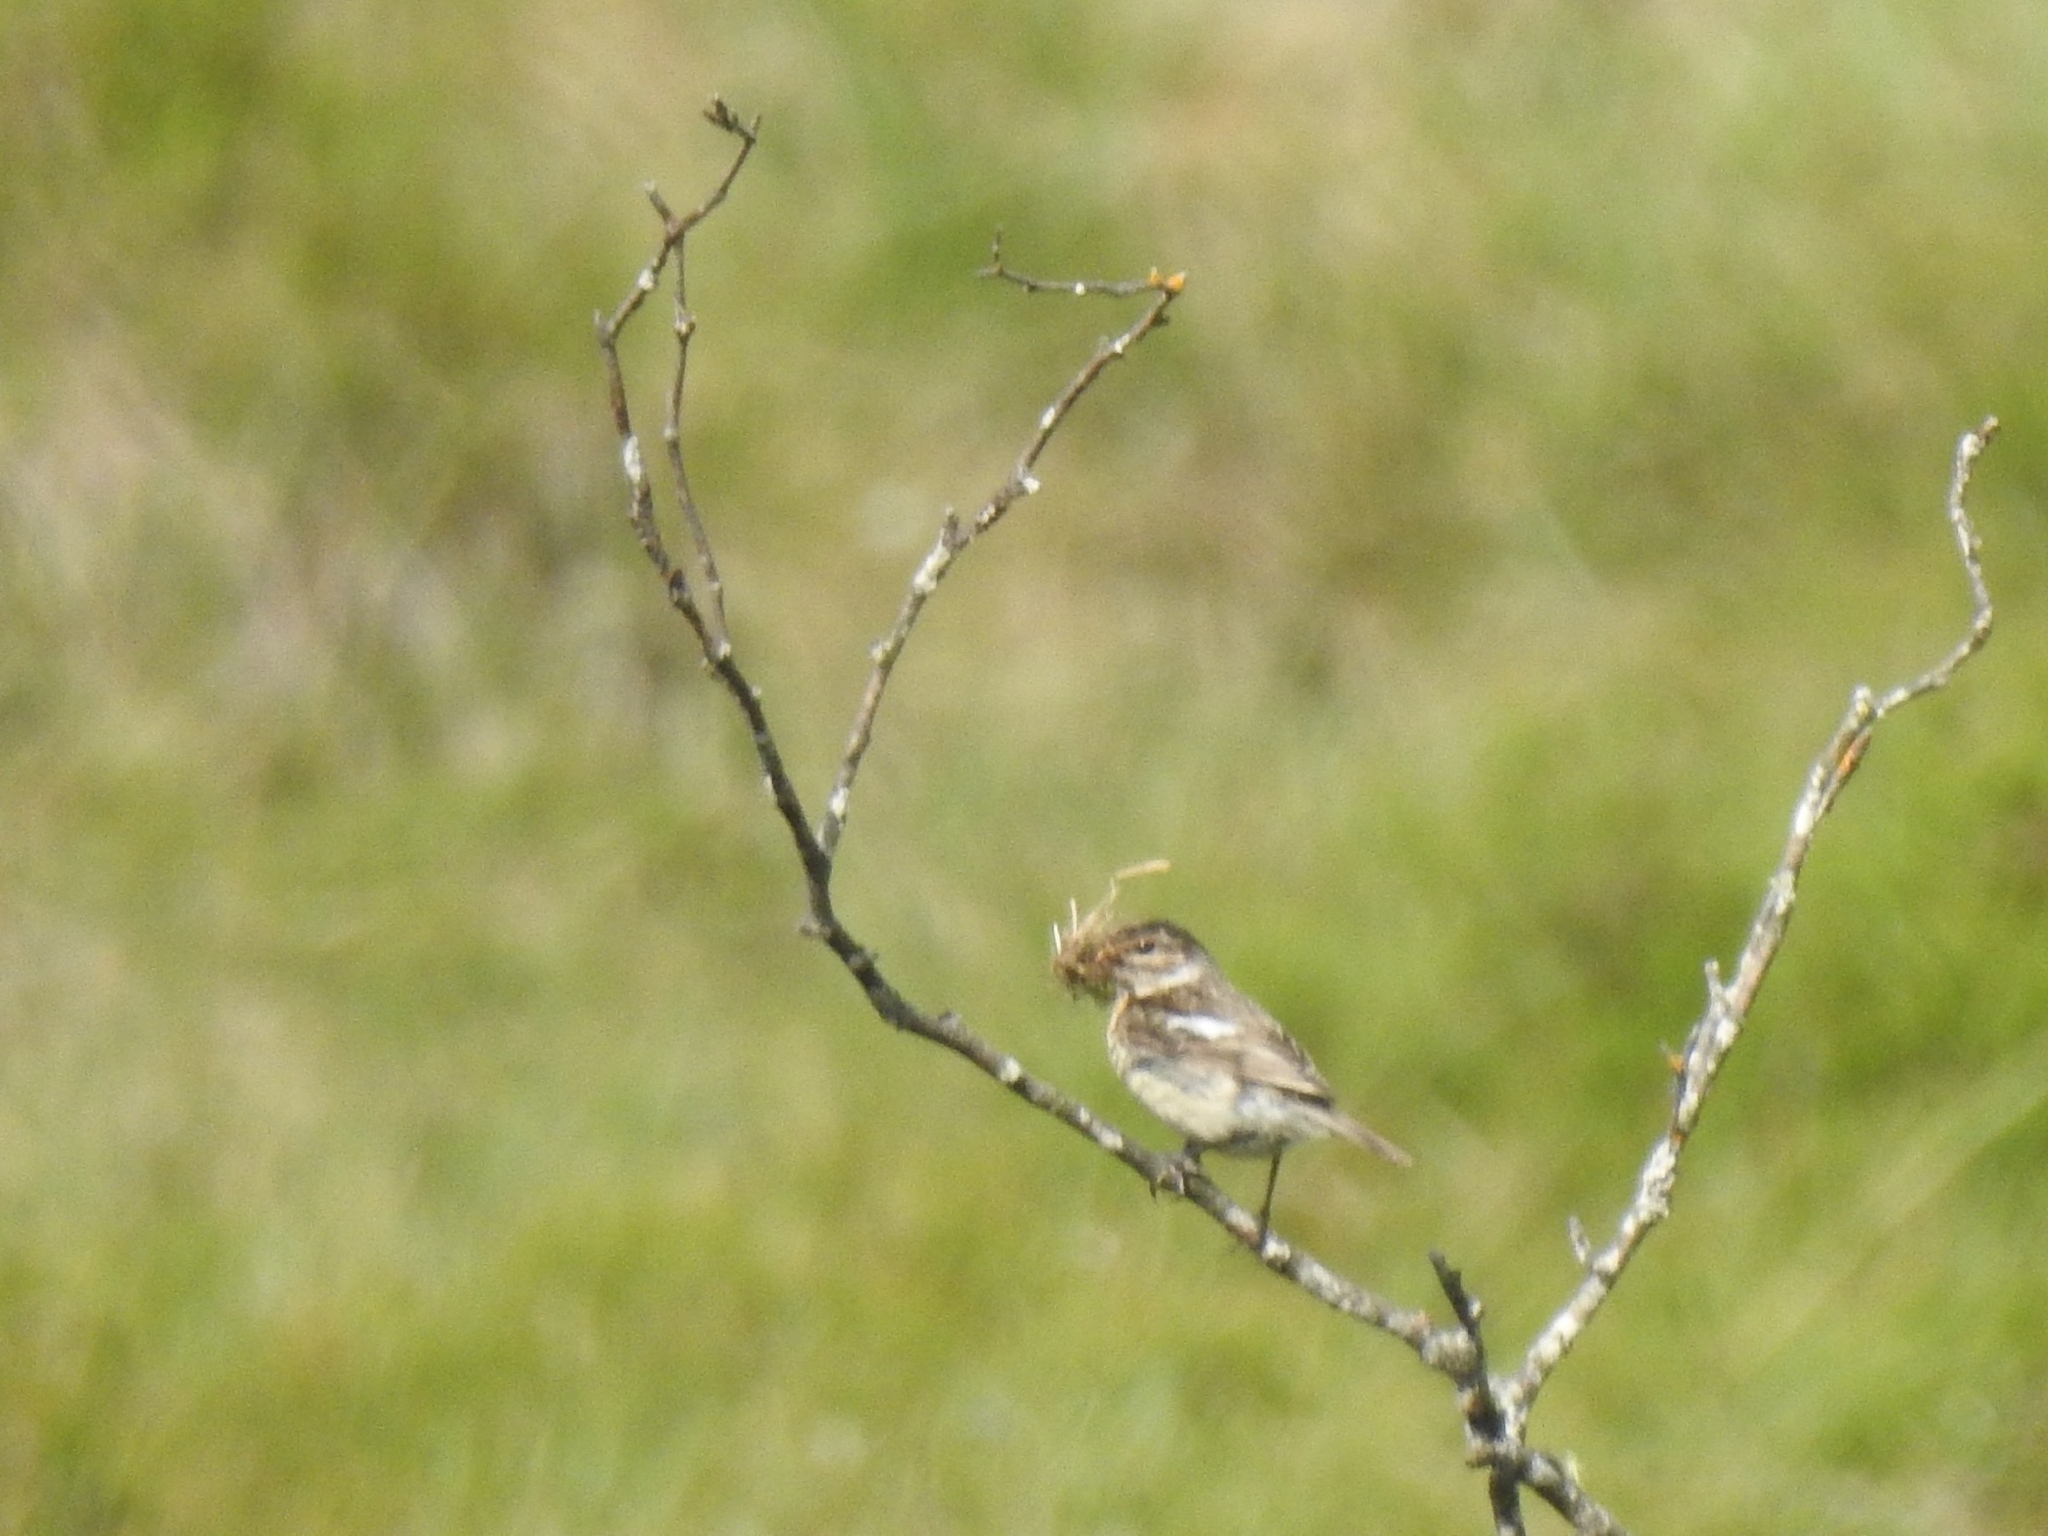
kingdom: Animalia
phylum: Chordata
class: Aves
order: Passeriformes
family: Muscicapidae
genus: Saxicola
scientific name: Saxicola rubicola
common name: European stonechat
